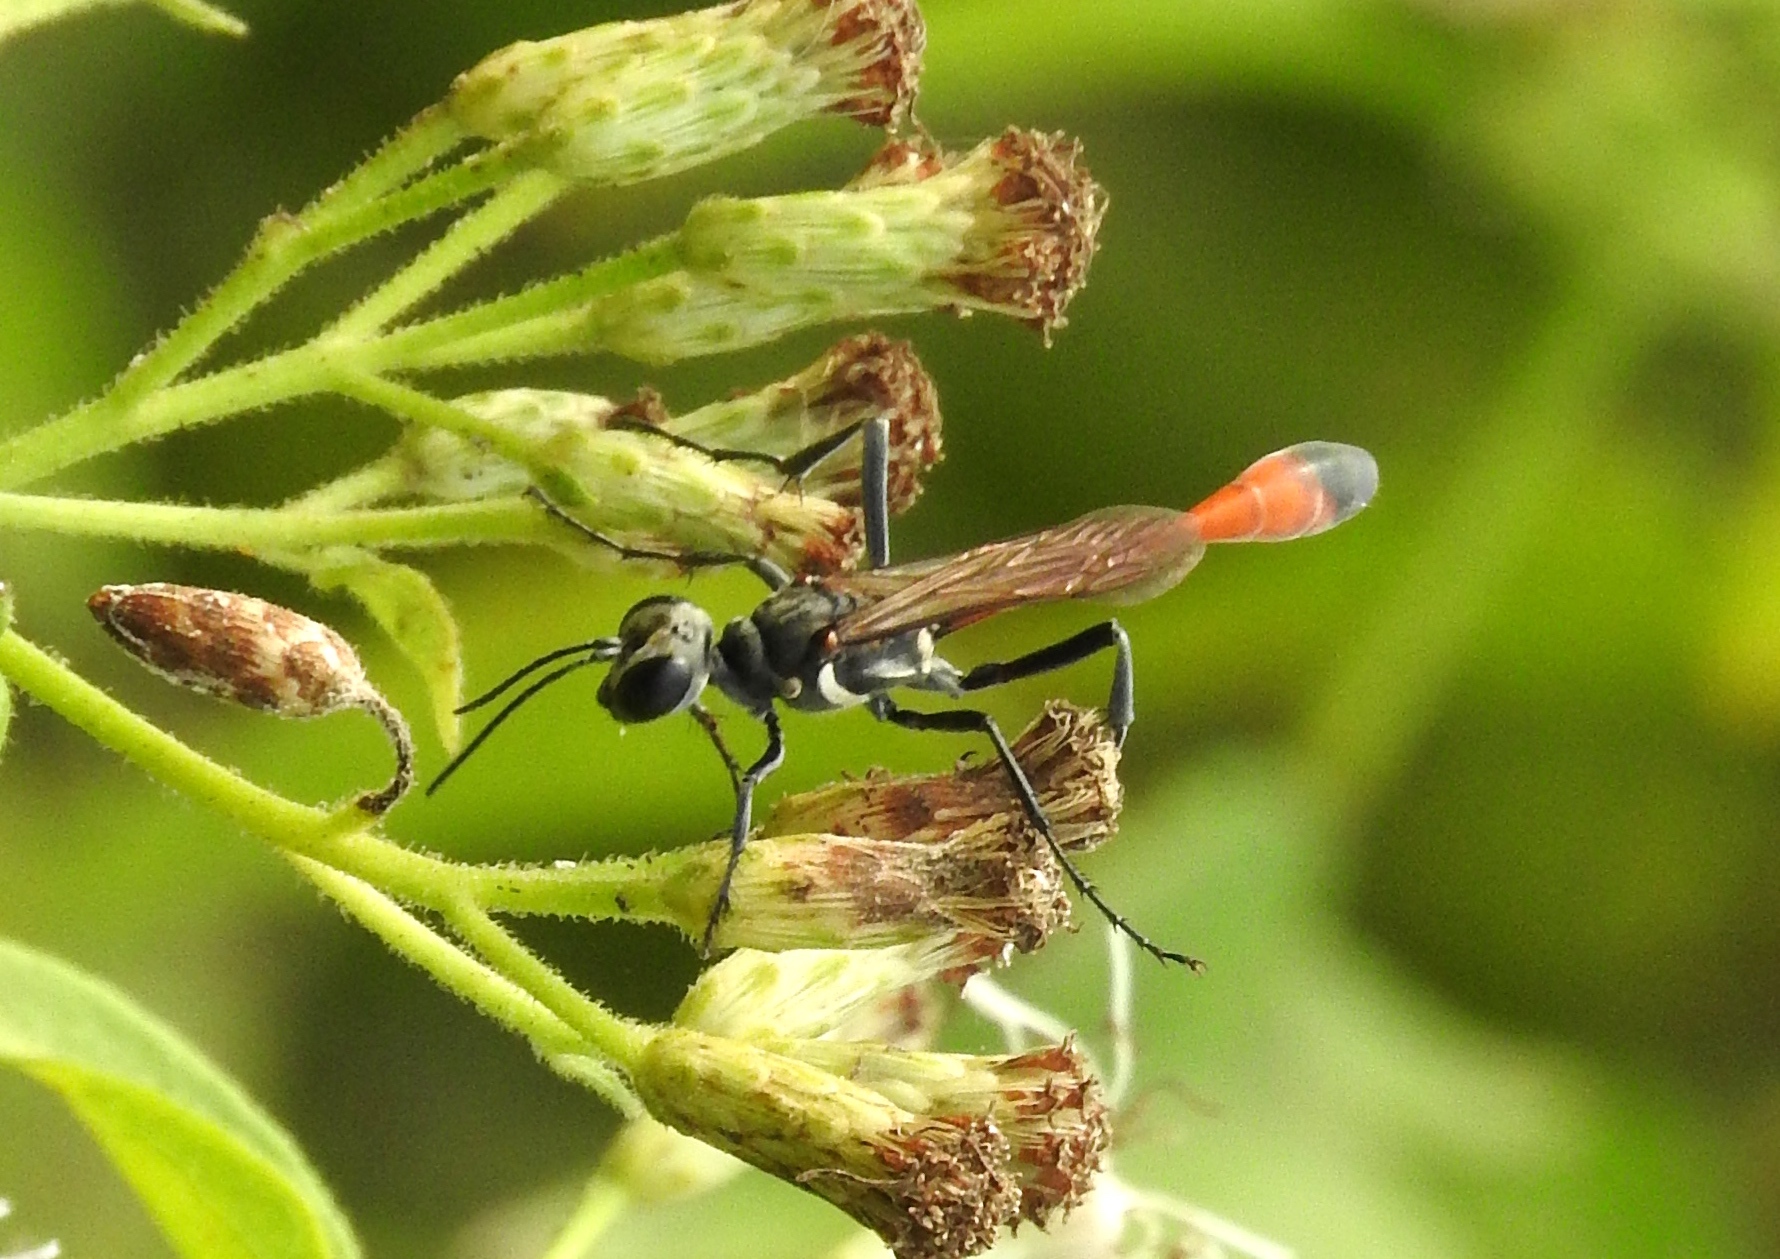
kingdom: Animalia
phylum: Arthropoda
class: Insecta
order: Hymenoptera
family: Sphecidae
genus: Ammophila
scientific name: Ammophila
